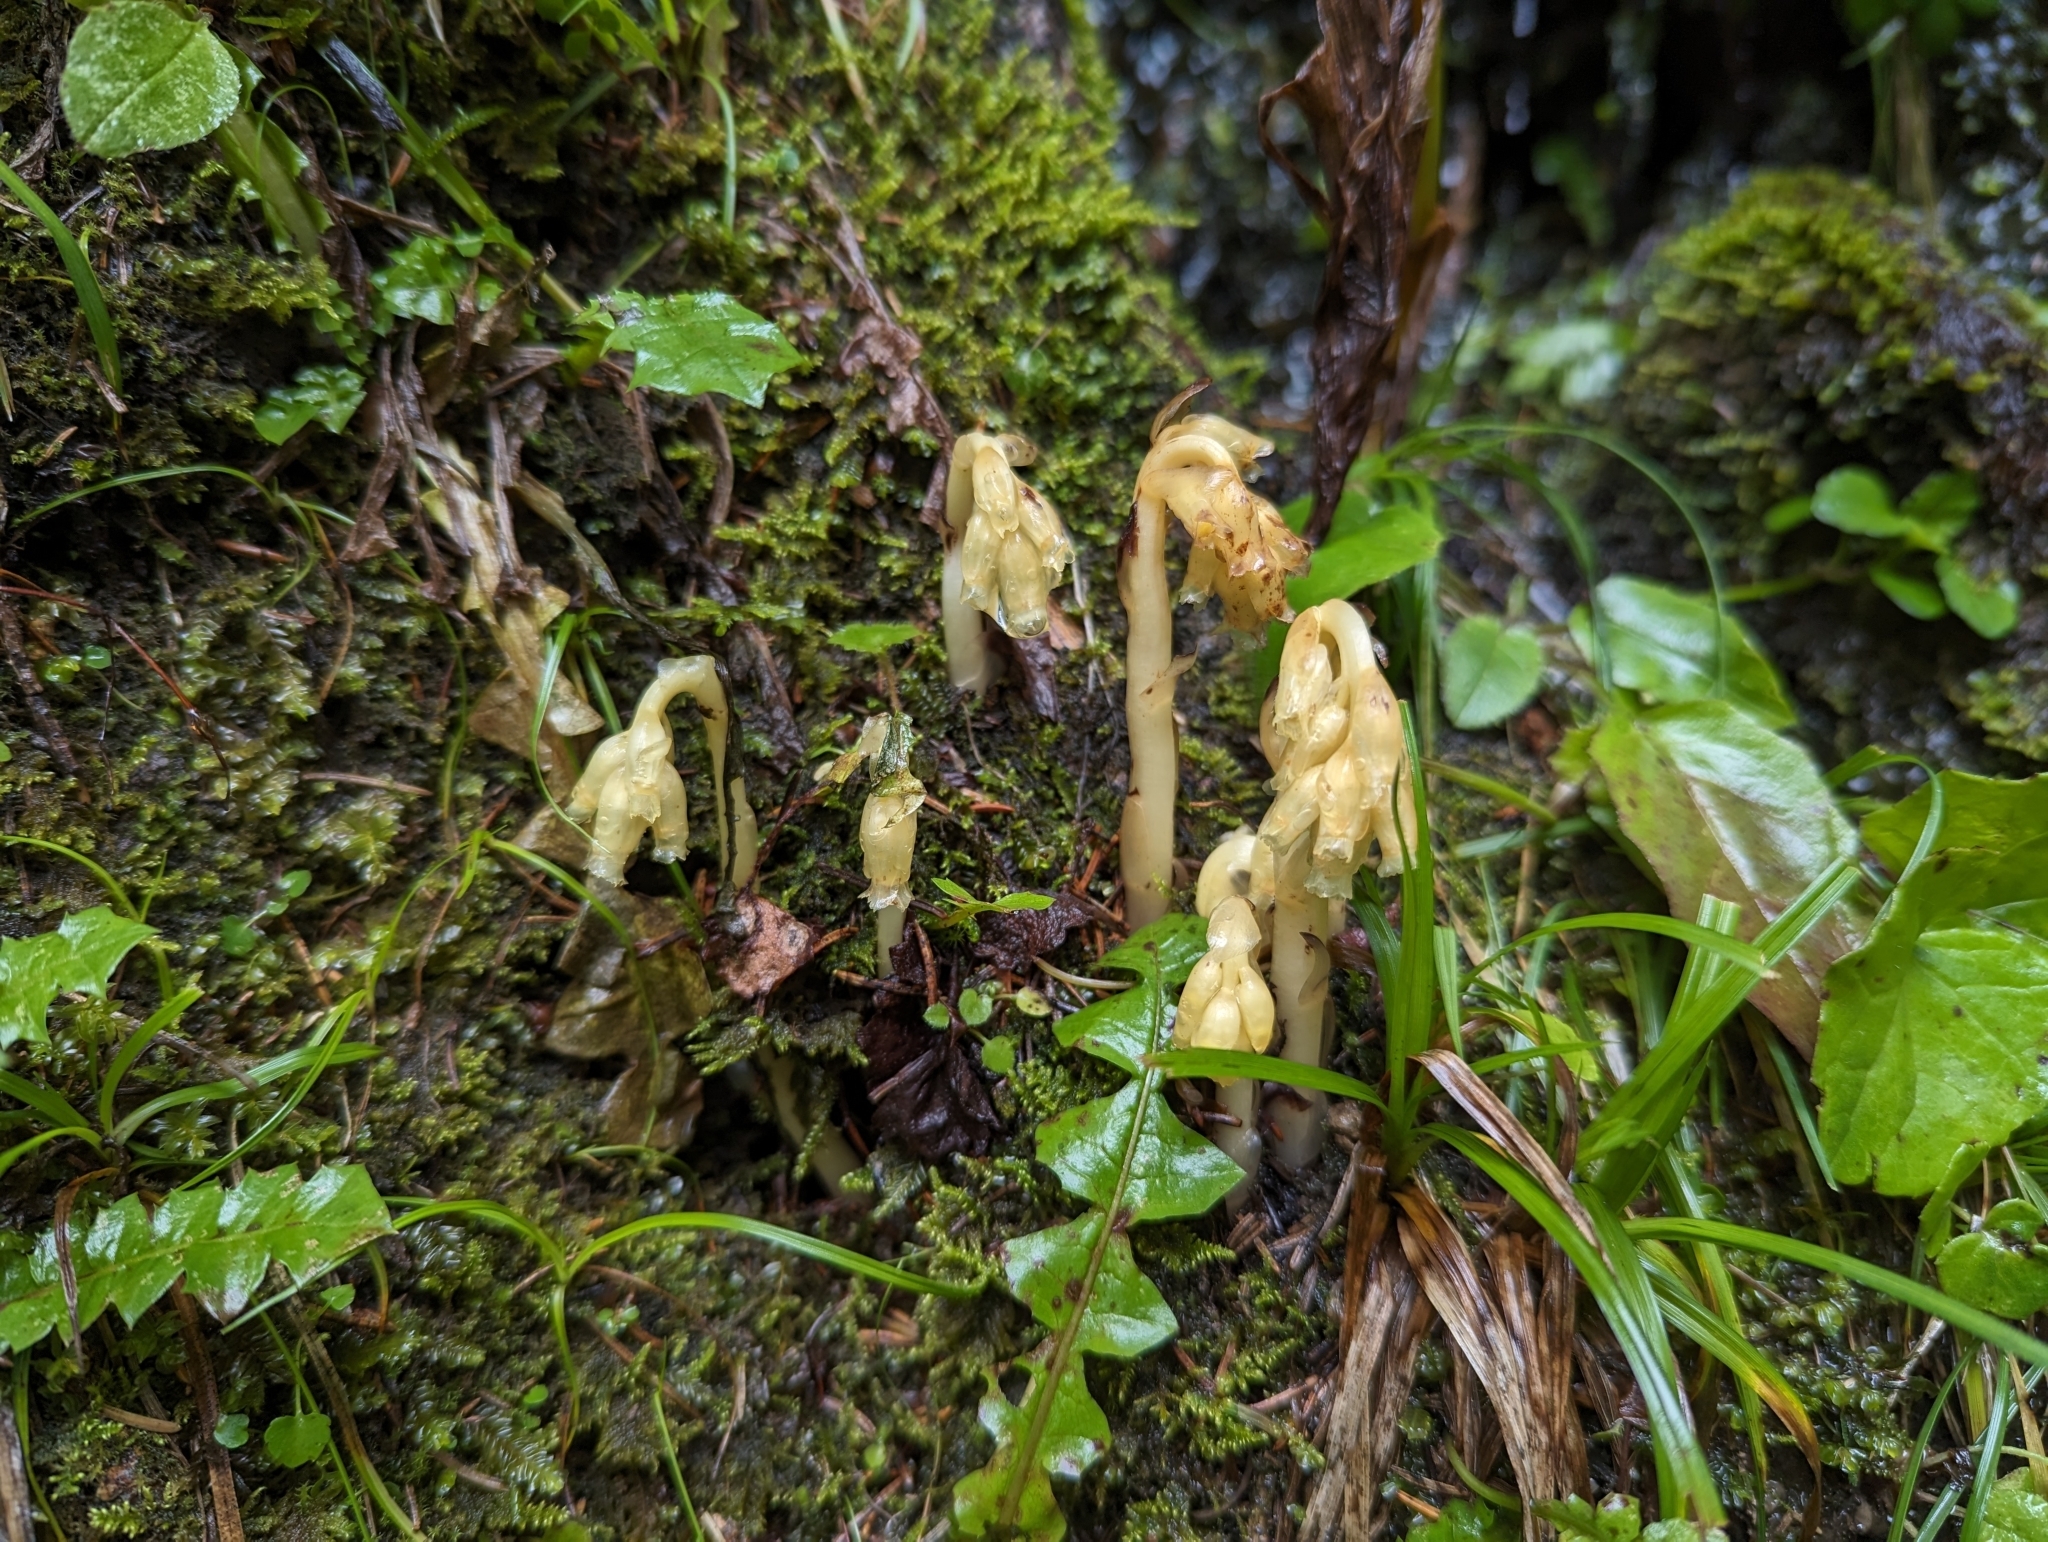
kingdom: Plantae
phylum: Tracheophyta
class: Magnoliopsida
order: Ericales
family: Ericaceae
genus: Hypopitys
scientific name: Hypopitys monotropa
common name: Yellow bird's-nest
